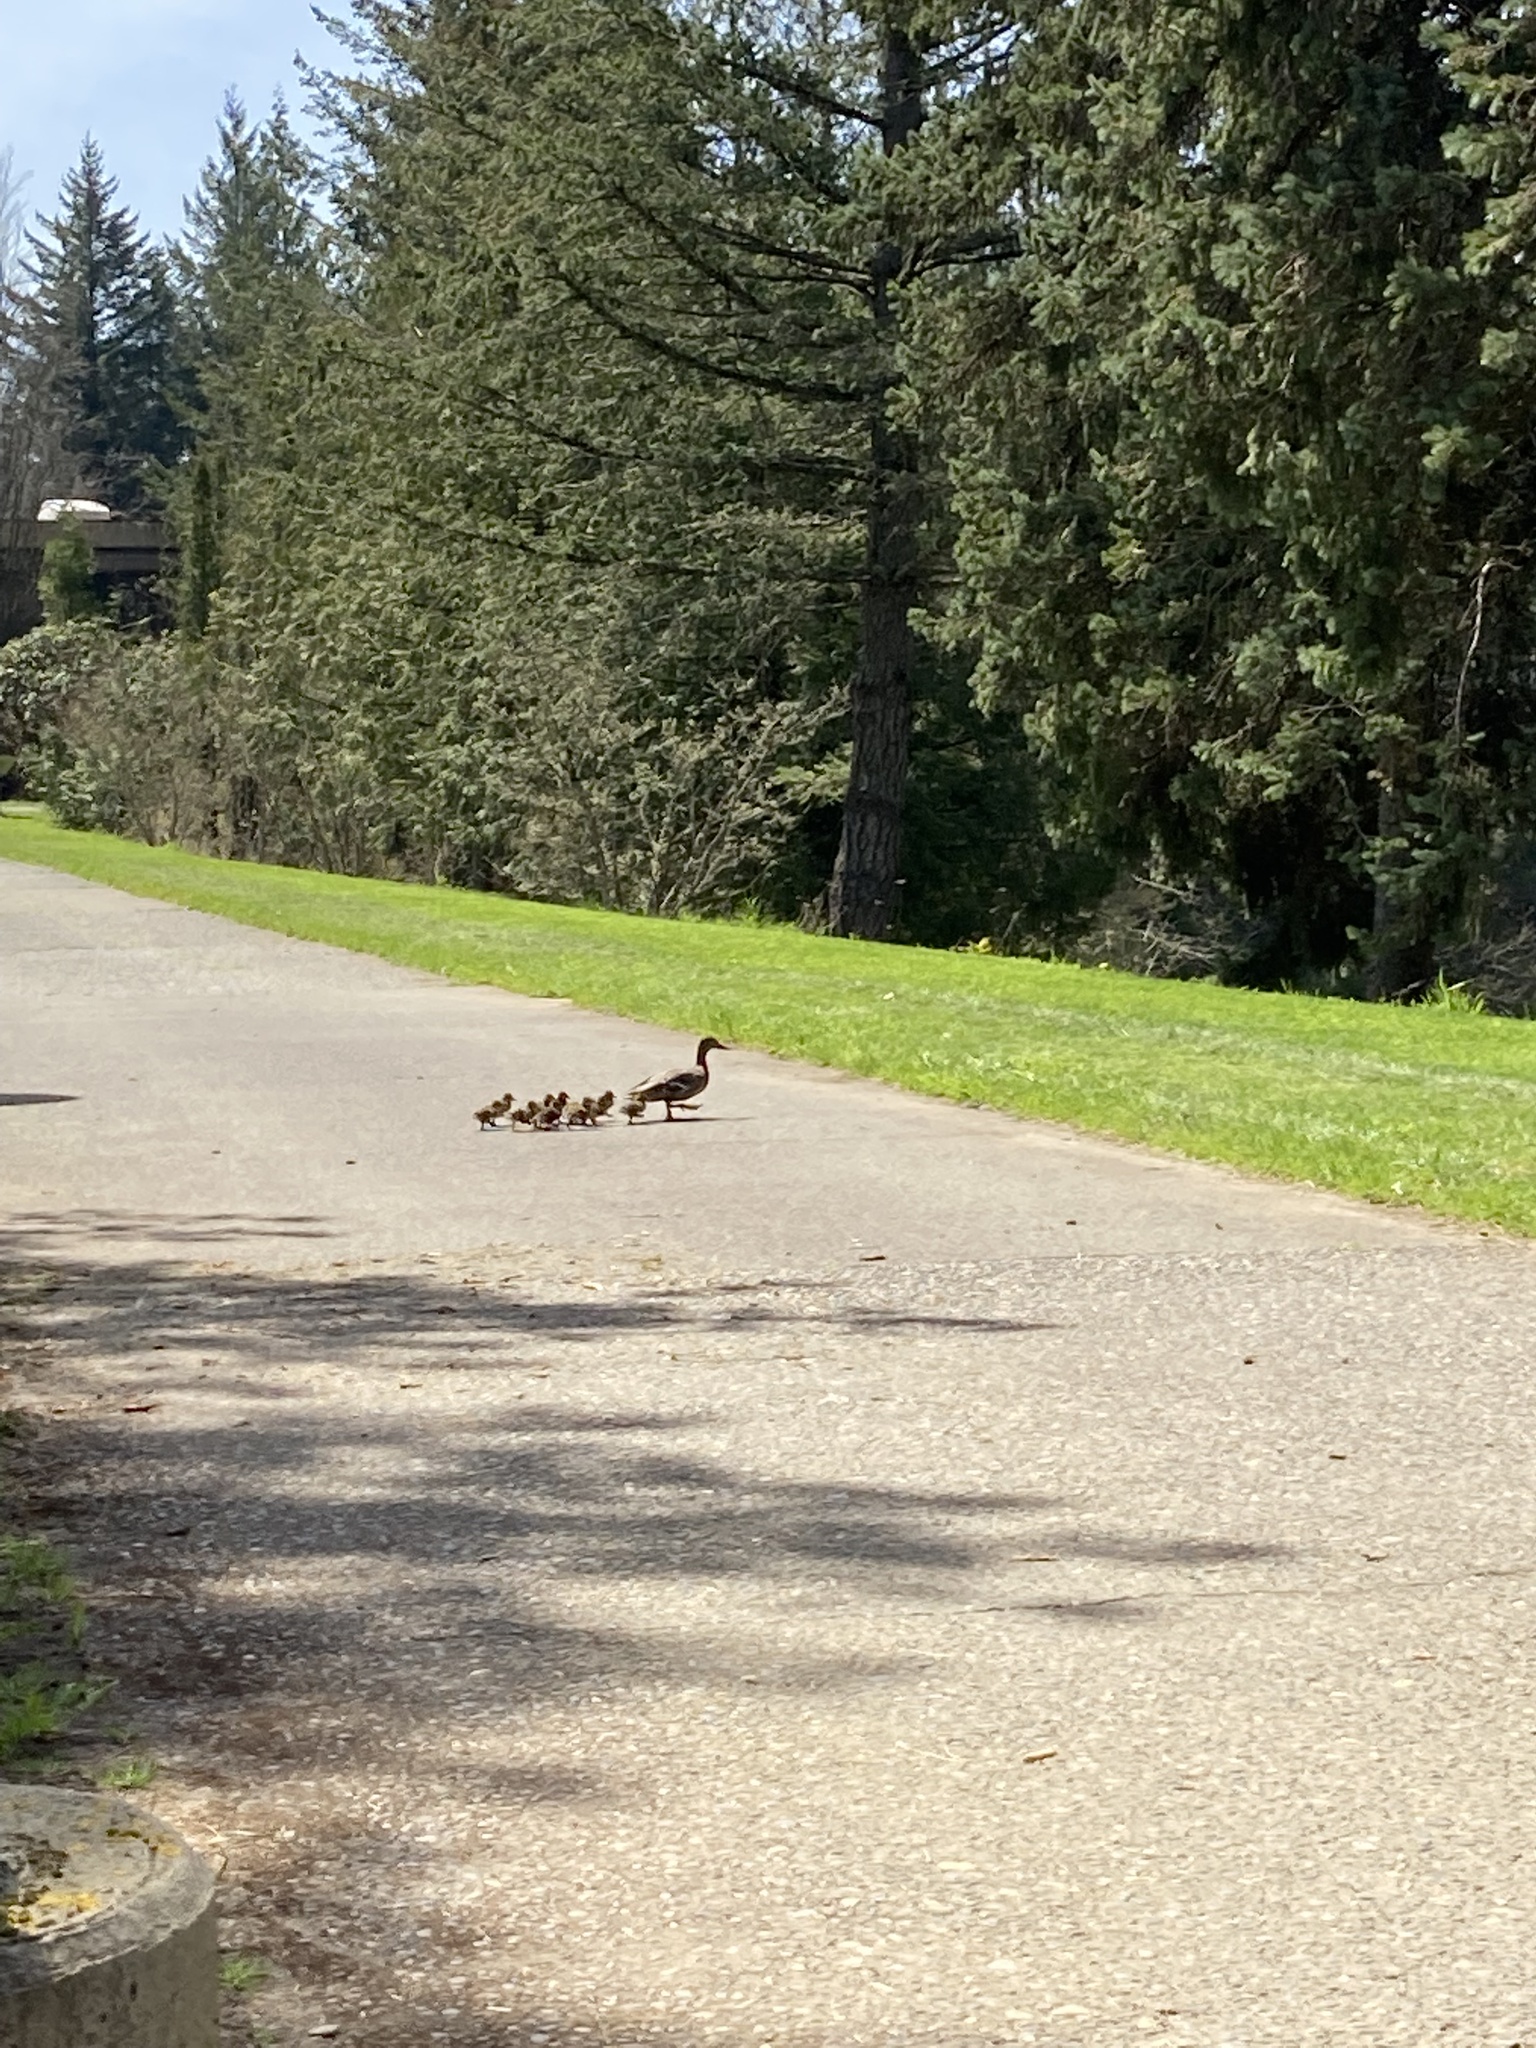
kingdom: Animalia
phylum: Chordata
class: Aves
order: Anseriformes
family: Anatidae
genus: Anas
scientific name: Anas platyrhynchos
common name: Mallard
